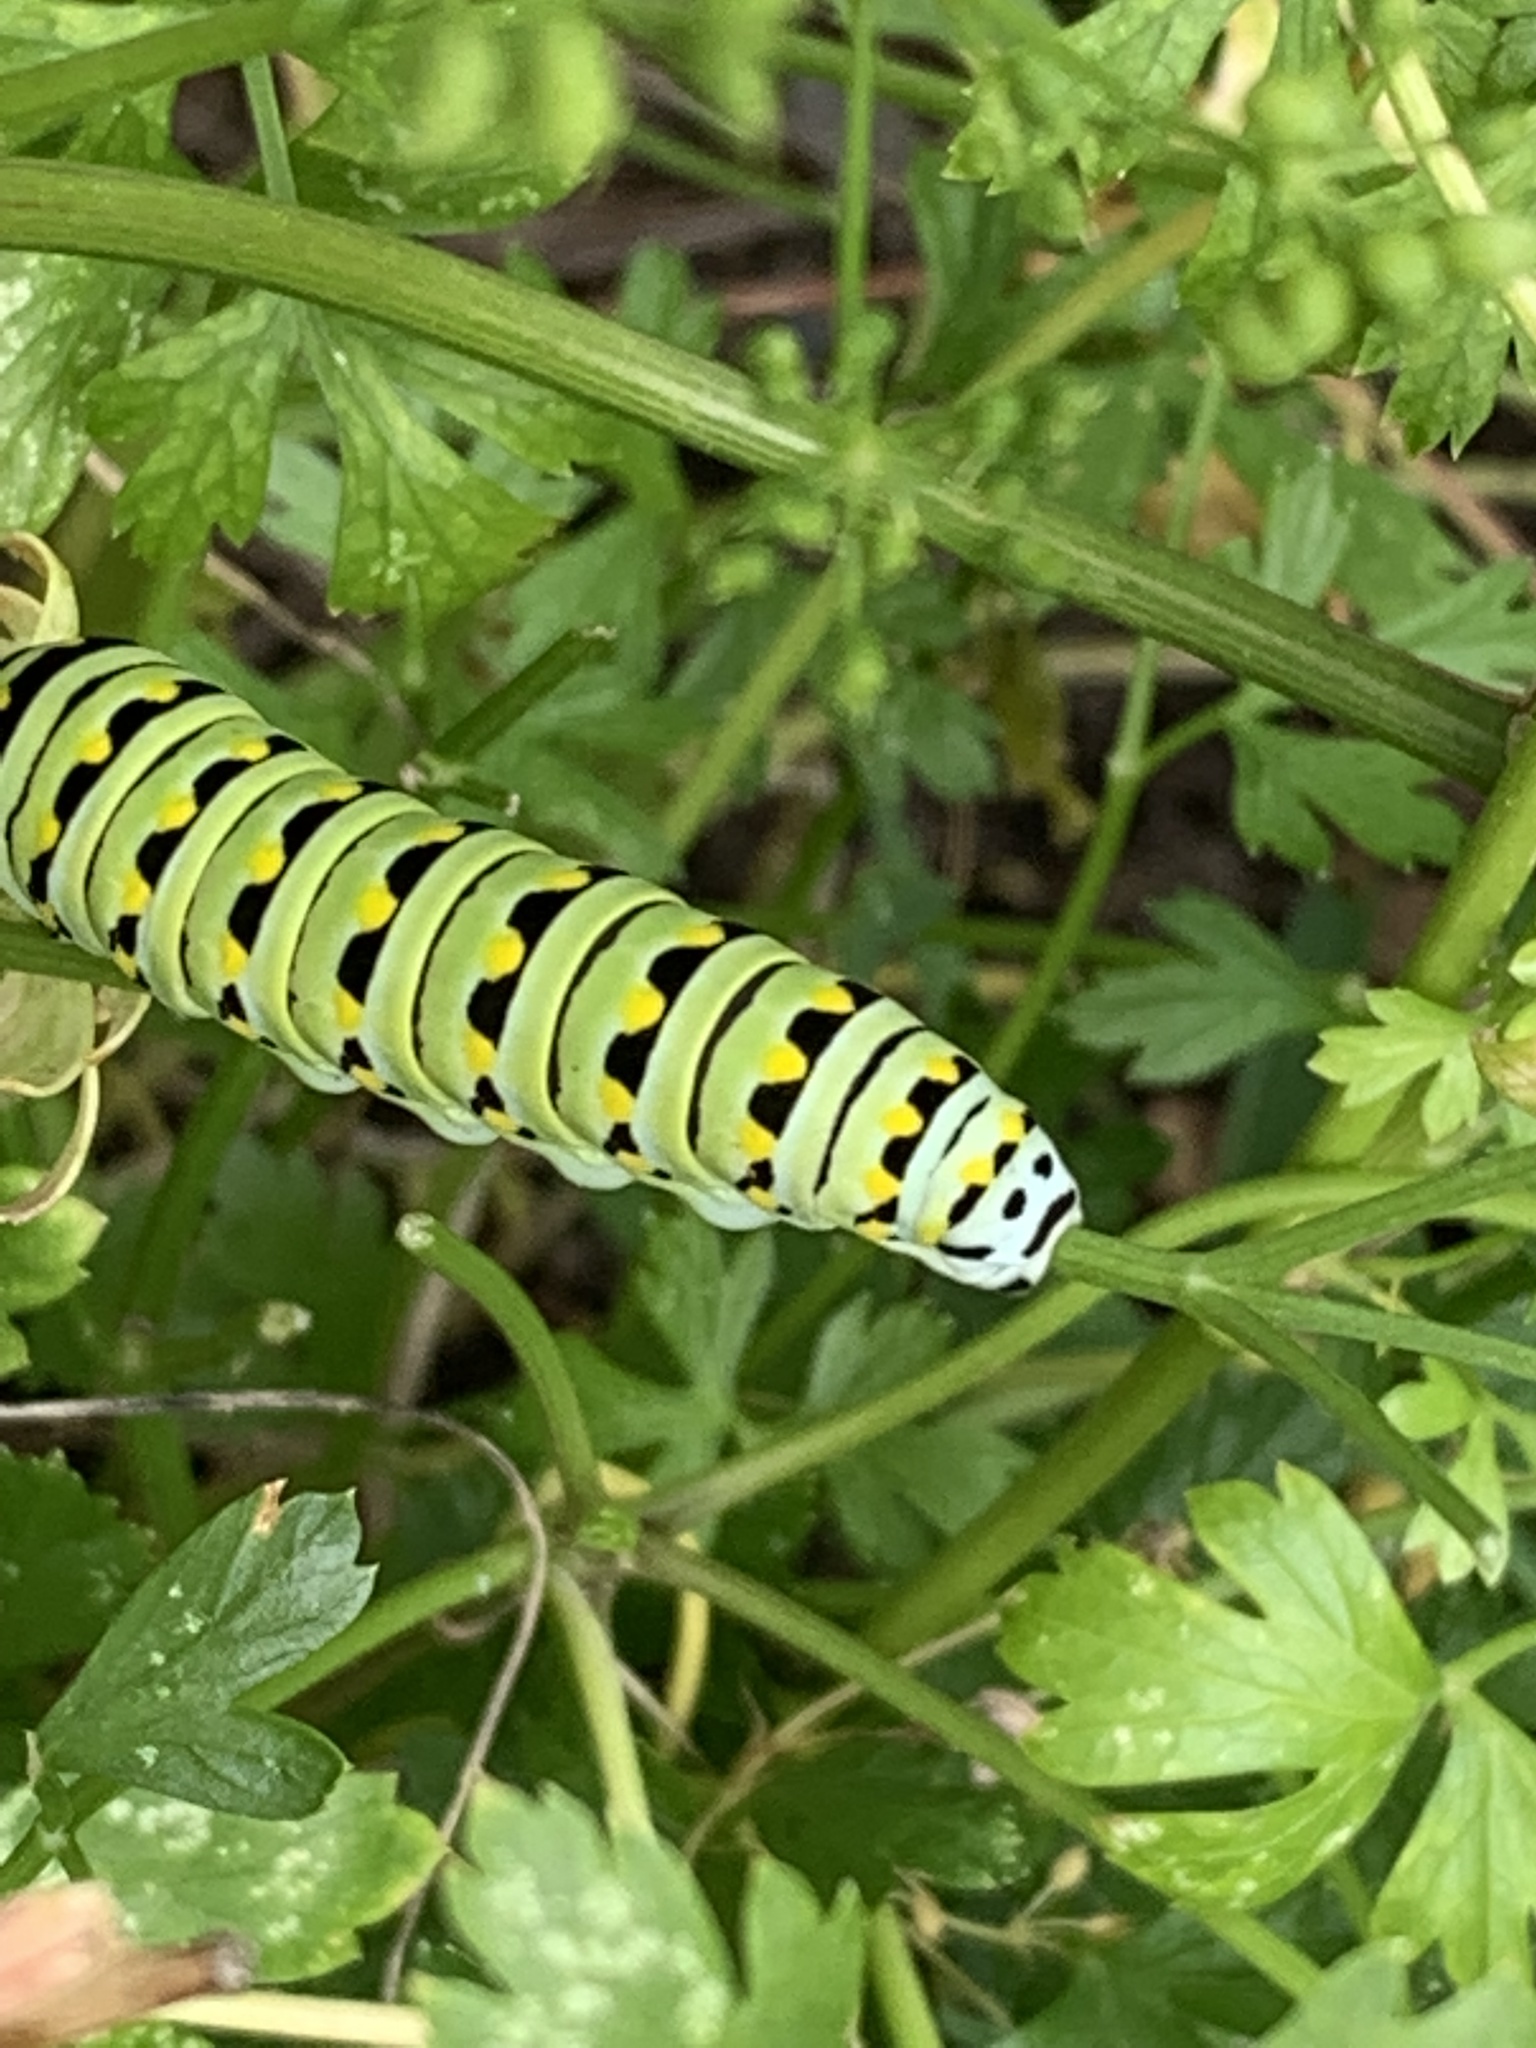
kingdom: Animalia
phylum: Arthropoda
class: Insecta
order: Lepidoptera
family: Papilionidae
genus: Papilio
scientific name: Papilio polyxenes
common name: Black swallowtail
